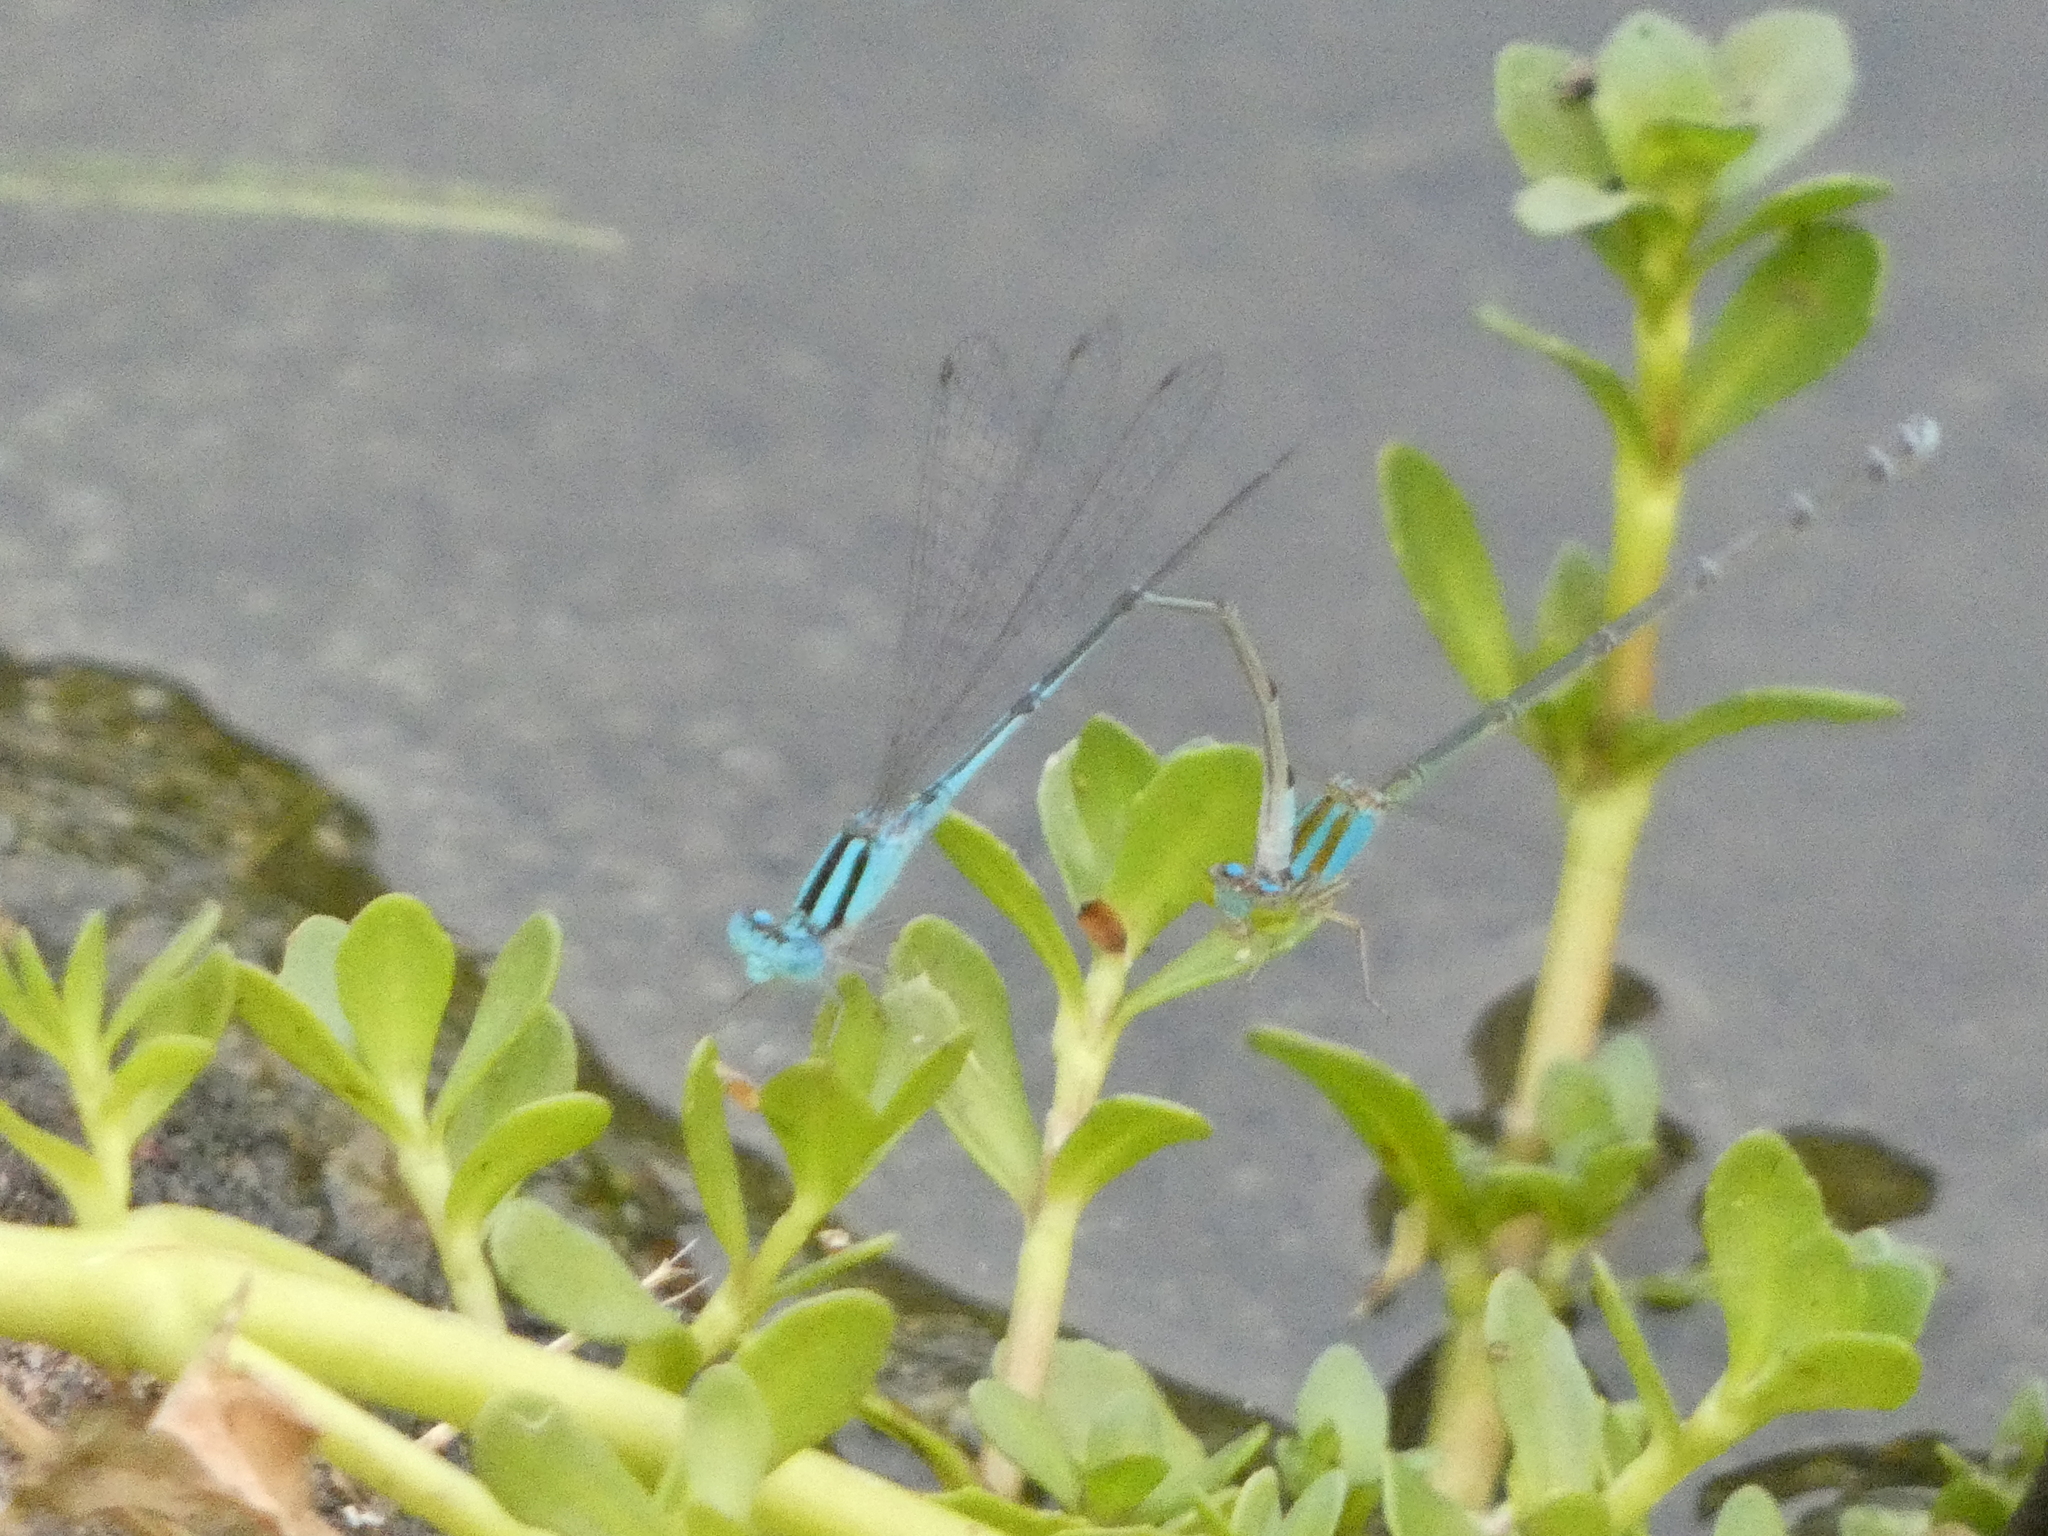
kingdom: Animalia
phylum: Arthropoda
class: Insecta
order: Odonata
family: Coenagrionidae
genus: Pseudagrion
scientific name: Pseudagrion microcephalum
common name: Blue riverdamsel
